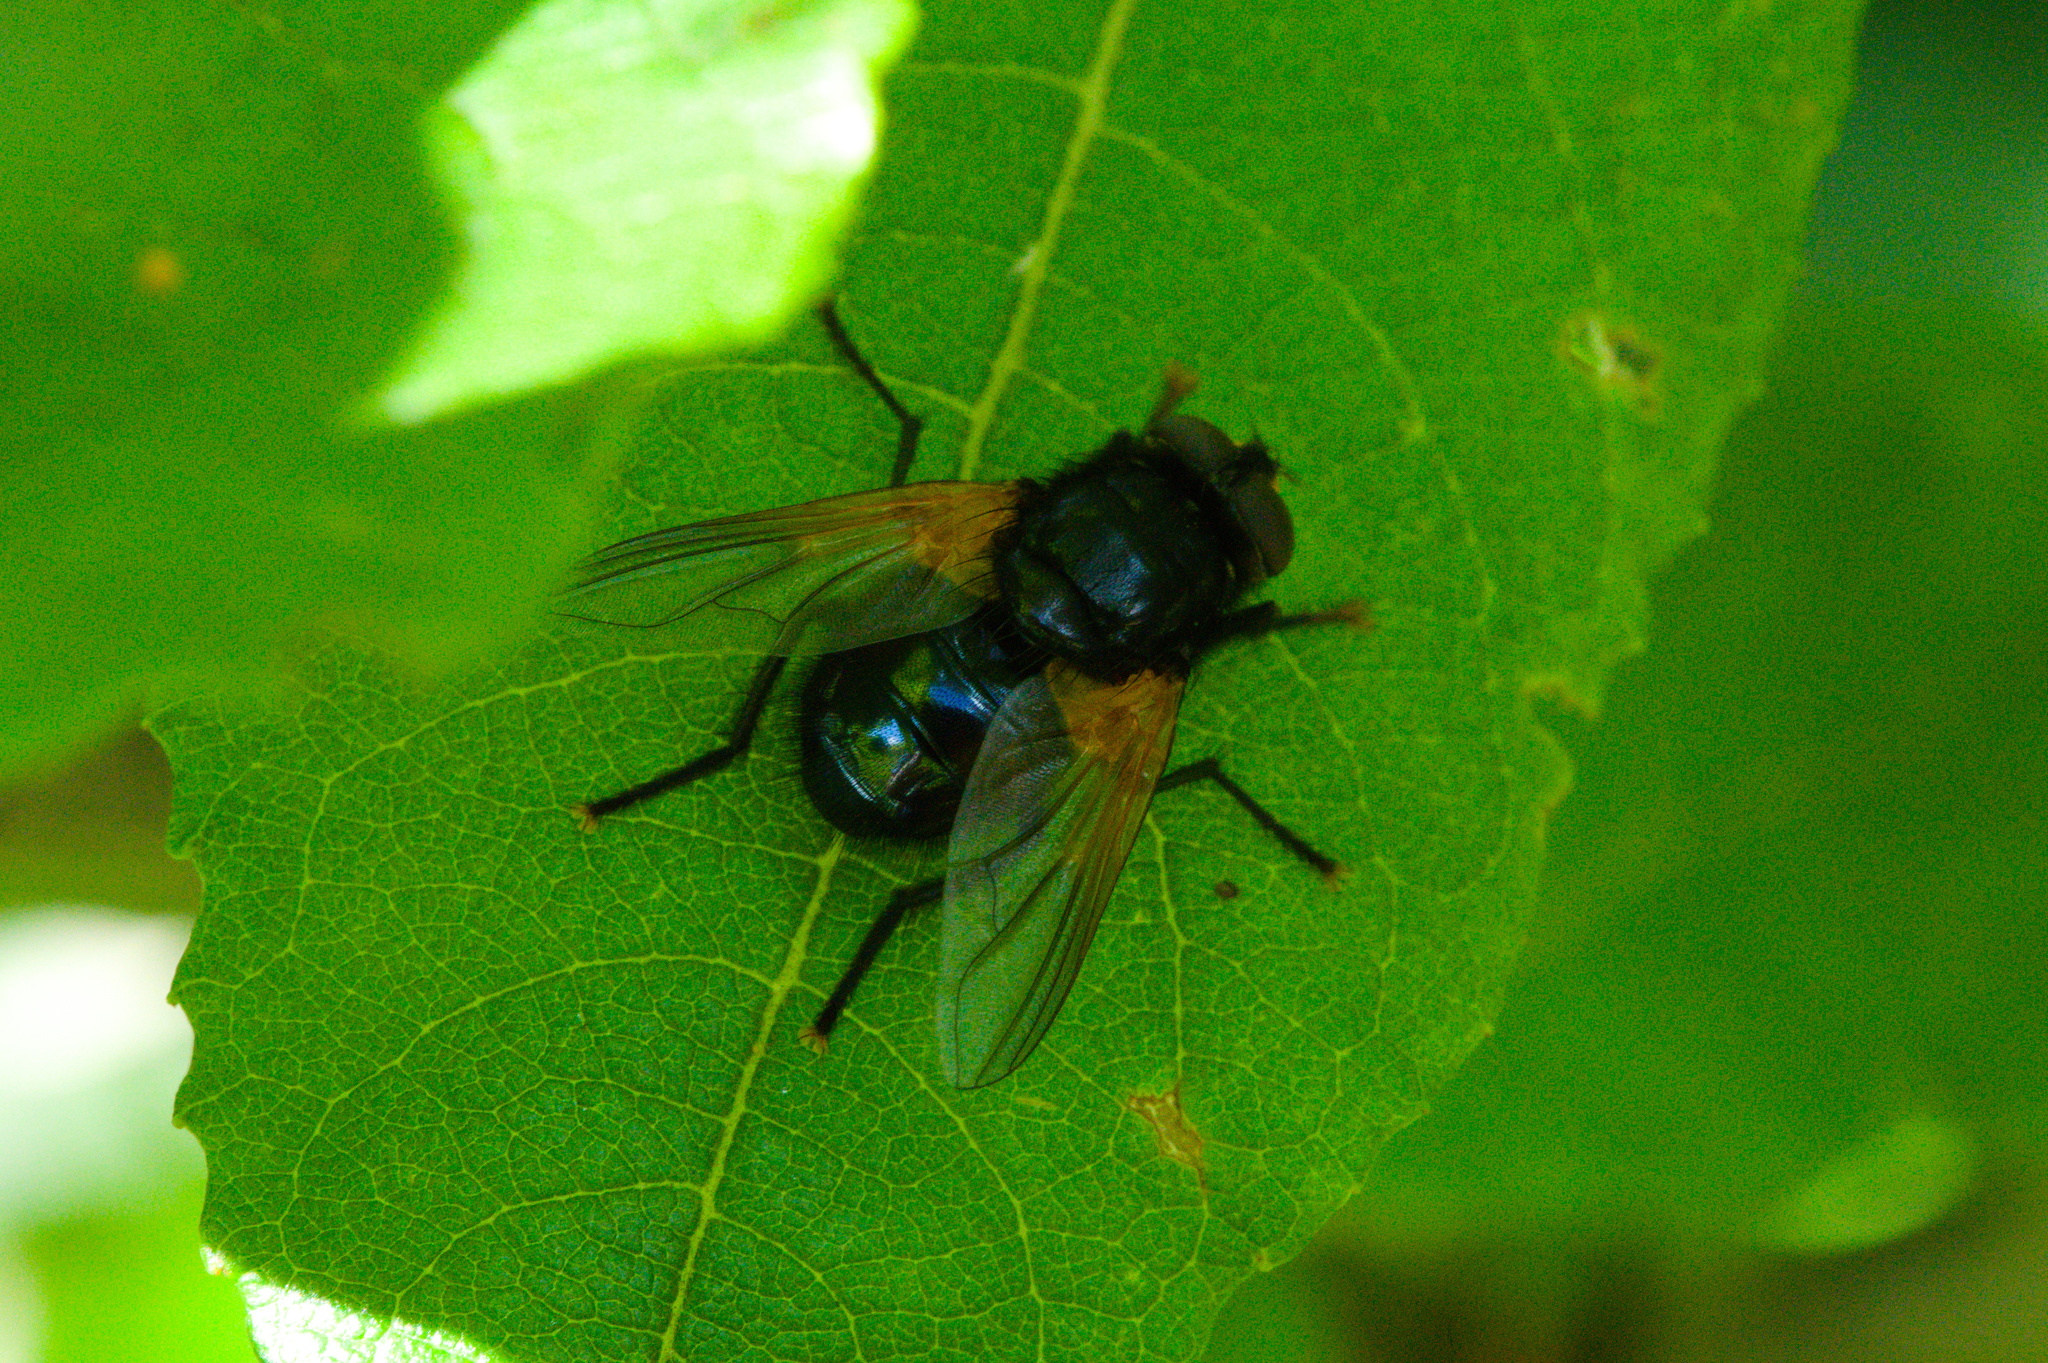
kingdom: Animalia
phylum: Arthropoda
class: Insecta
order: Diptera
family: Muscidae
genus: Mesembrina
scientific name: Mesembrina meridiana
